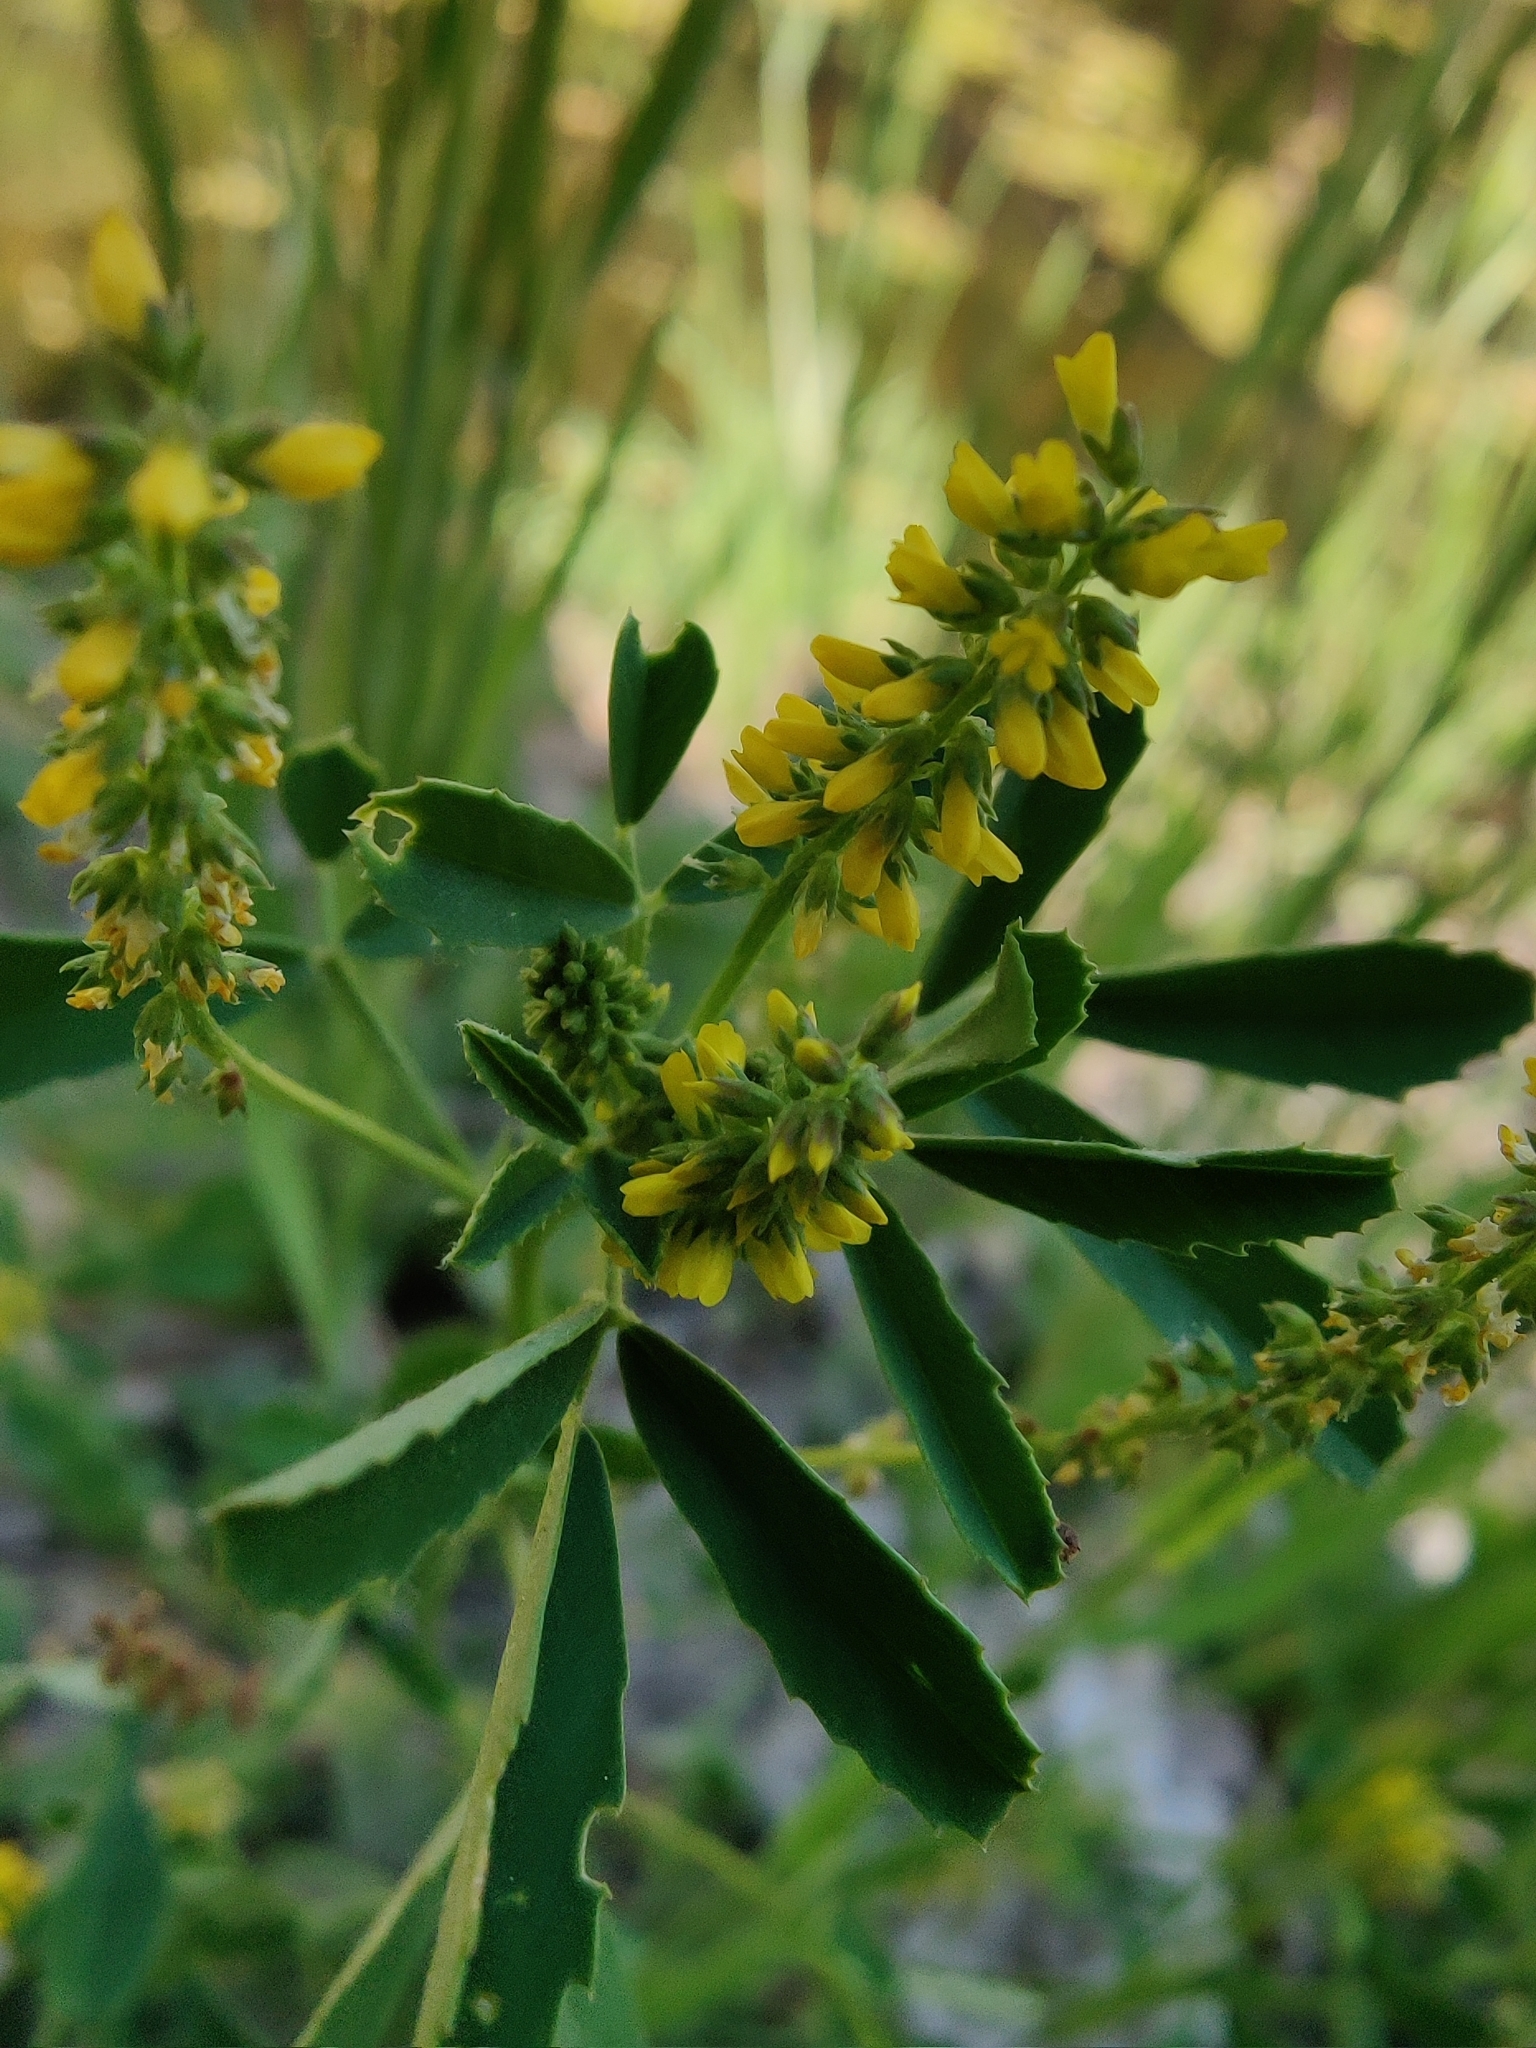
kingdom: Plantae
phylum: Tracheophyta
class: Magnoliopsida
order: Fabales
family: Fabaceae
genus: Melilotus
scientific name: Melilotus indicus
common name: Small melilot
